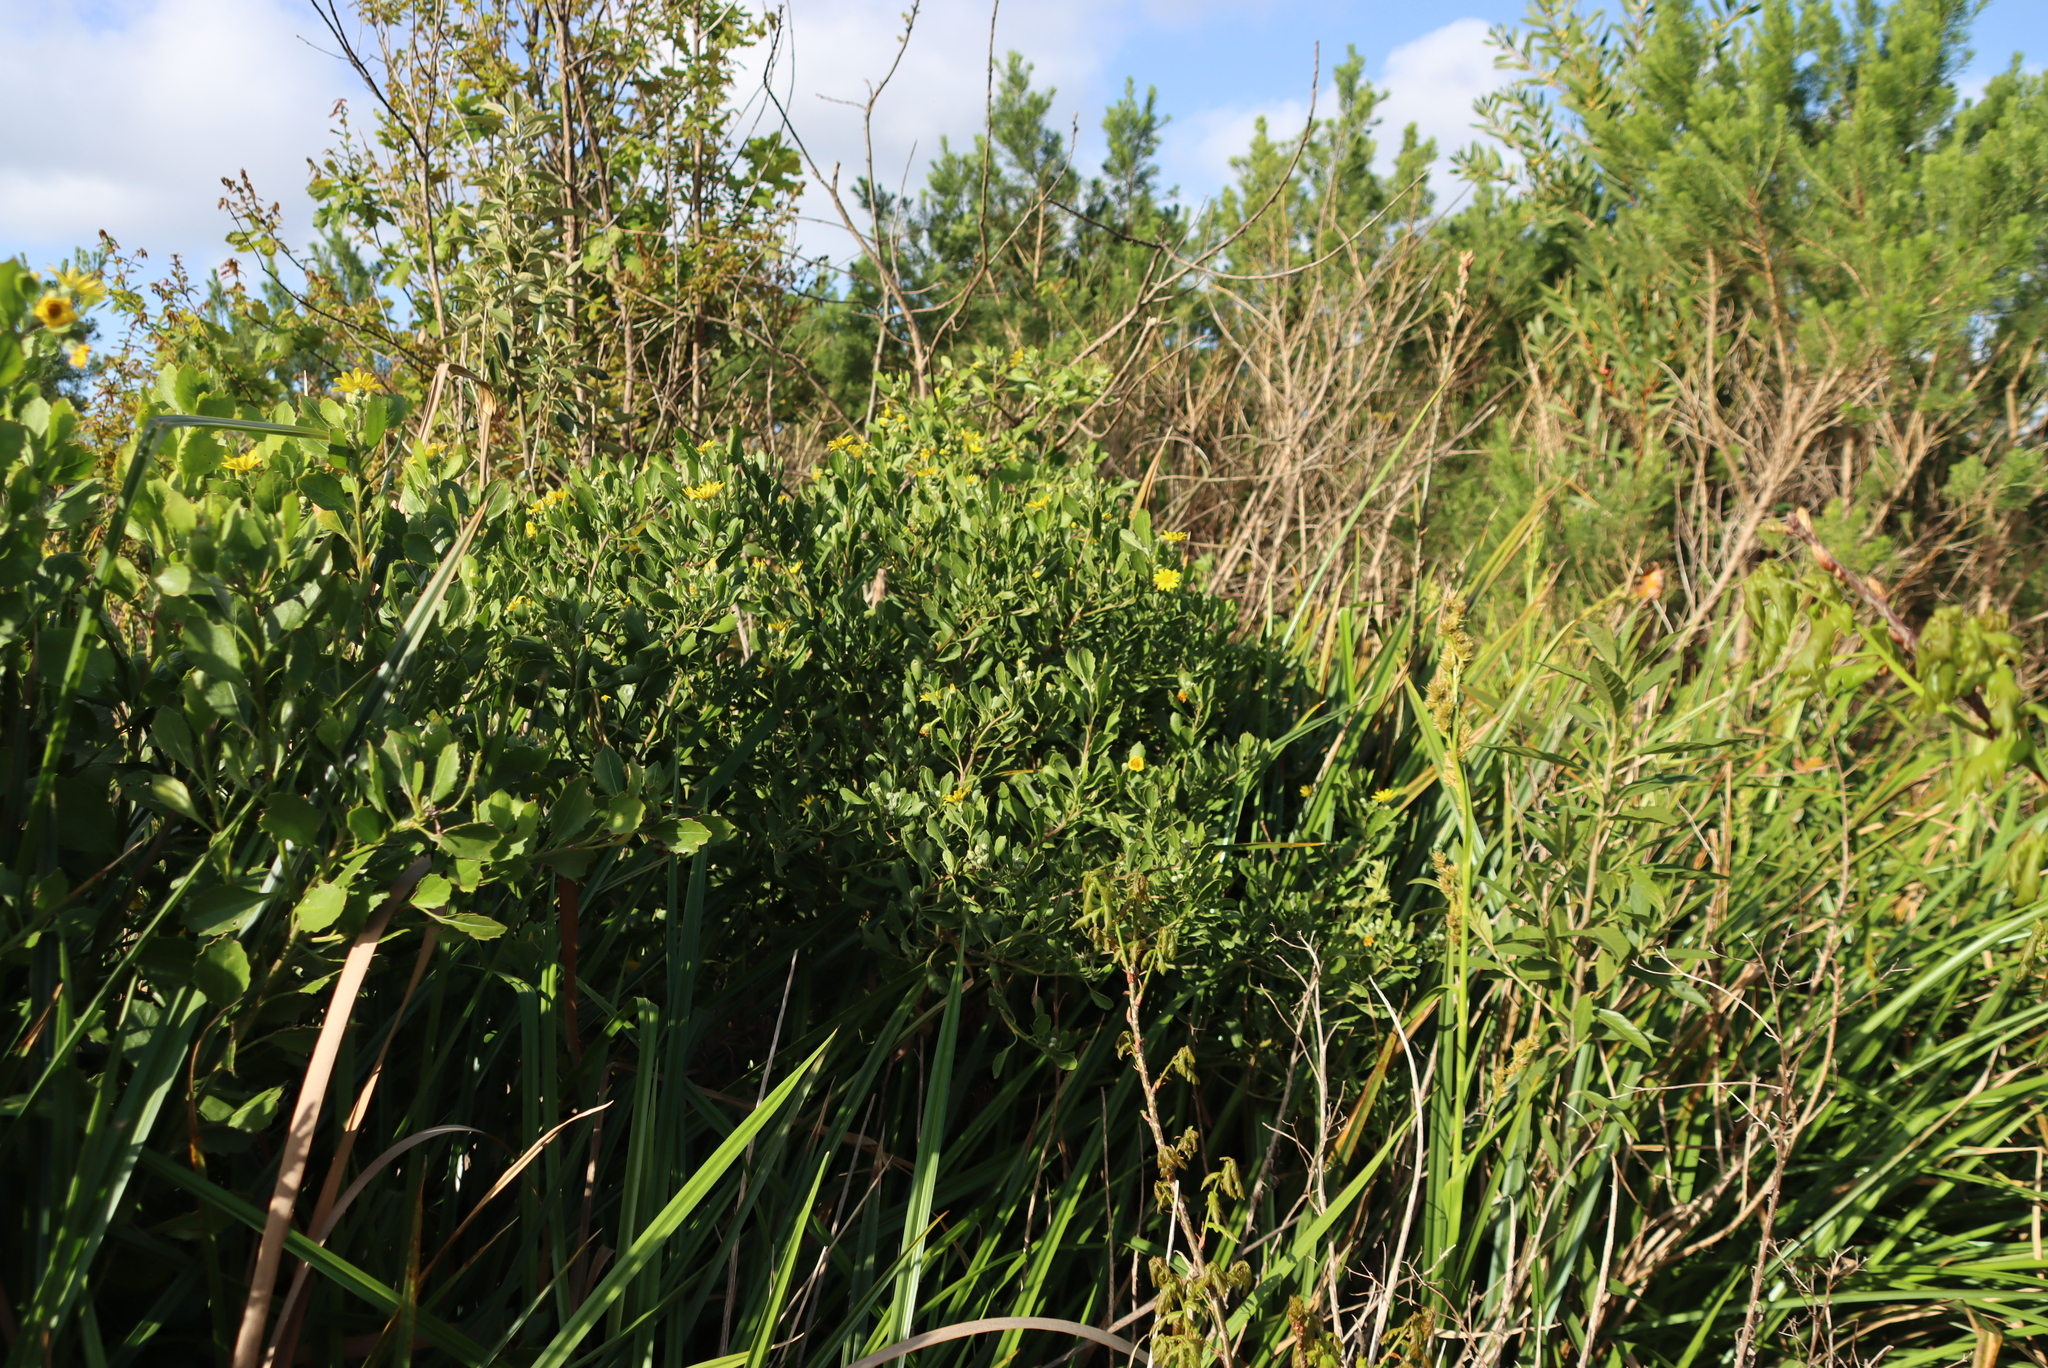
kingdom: Plantae
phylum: Tracheophyta
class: Magnoliopsida
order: Asterales
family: Asteraceae
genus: Osteospermum
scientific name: Osteospermum moniliferum
